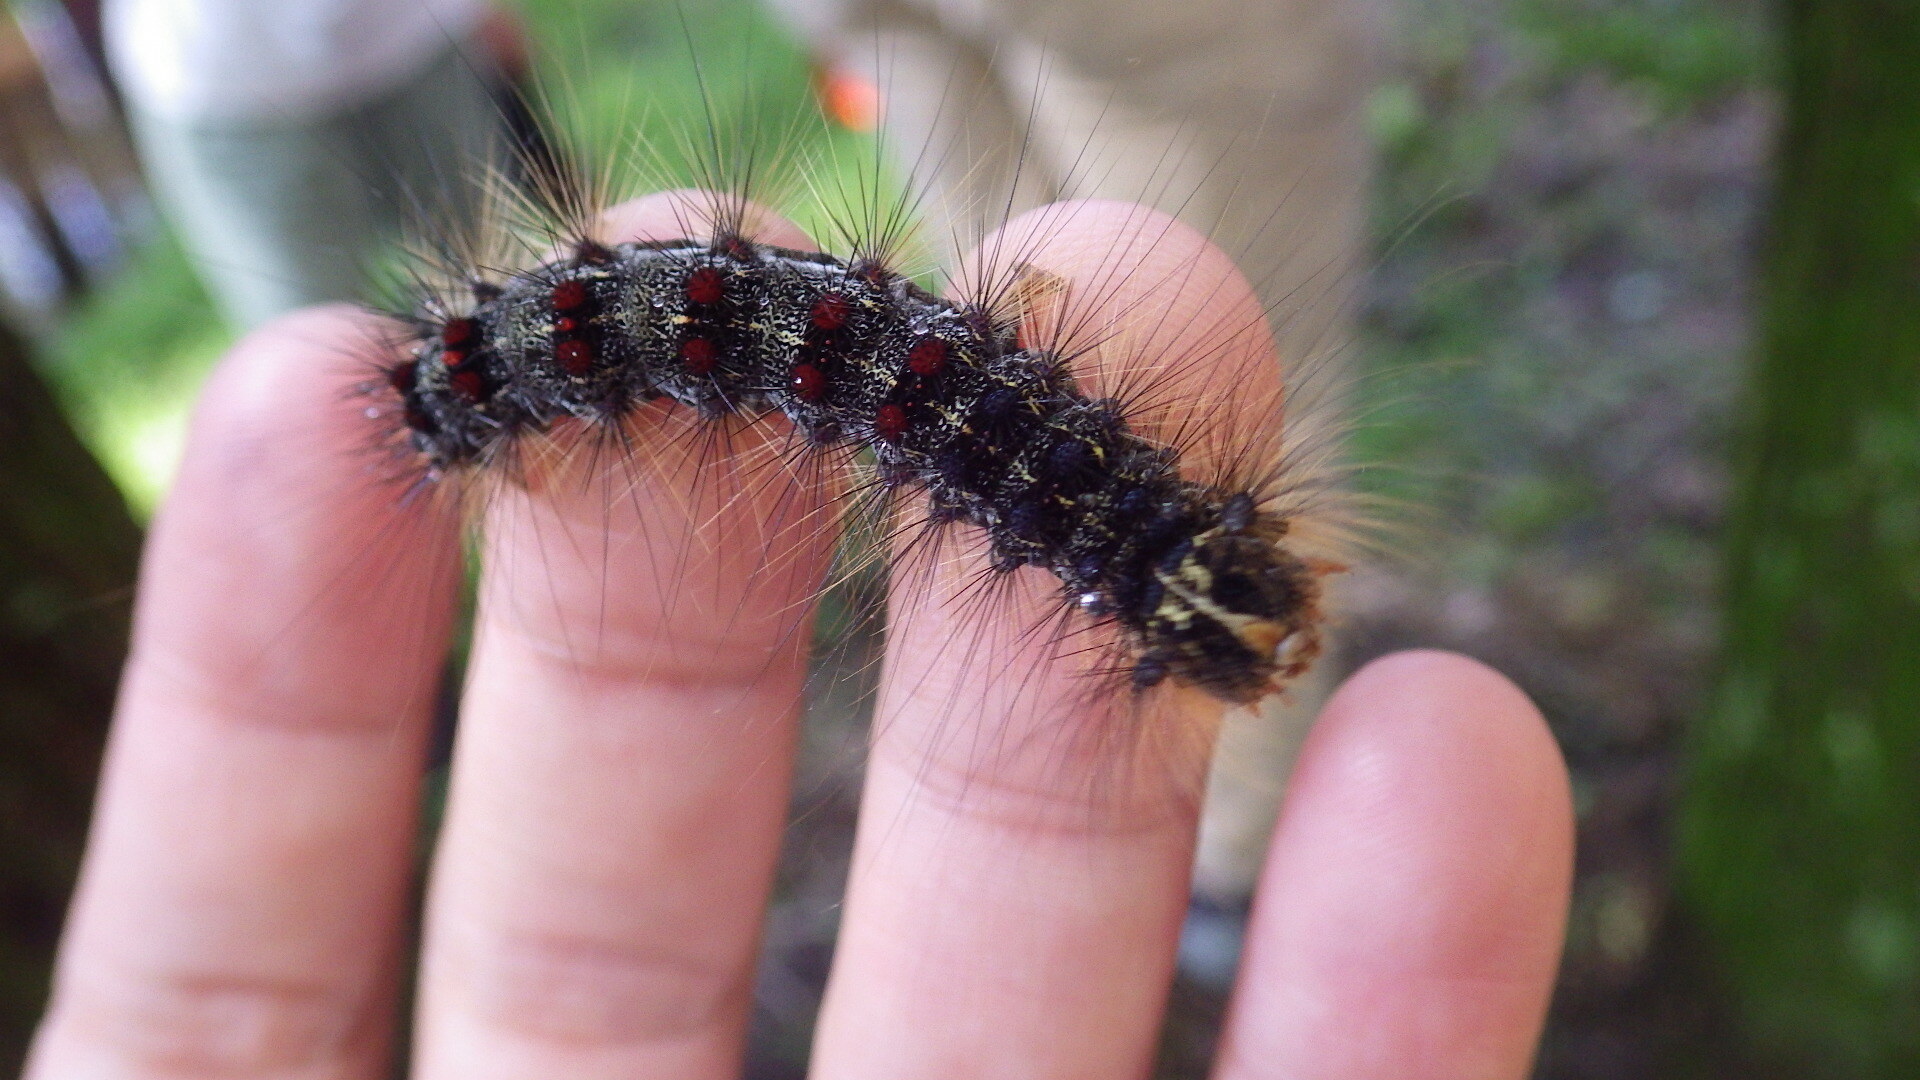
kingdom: Animalia
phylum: Arthropoda
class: Insecta
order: Lepidoptera
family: Erebidae
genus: Lymantria
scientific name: Lymantria dispar
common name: Gypsy moth
